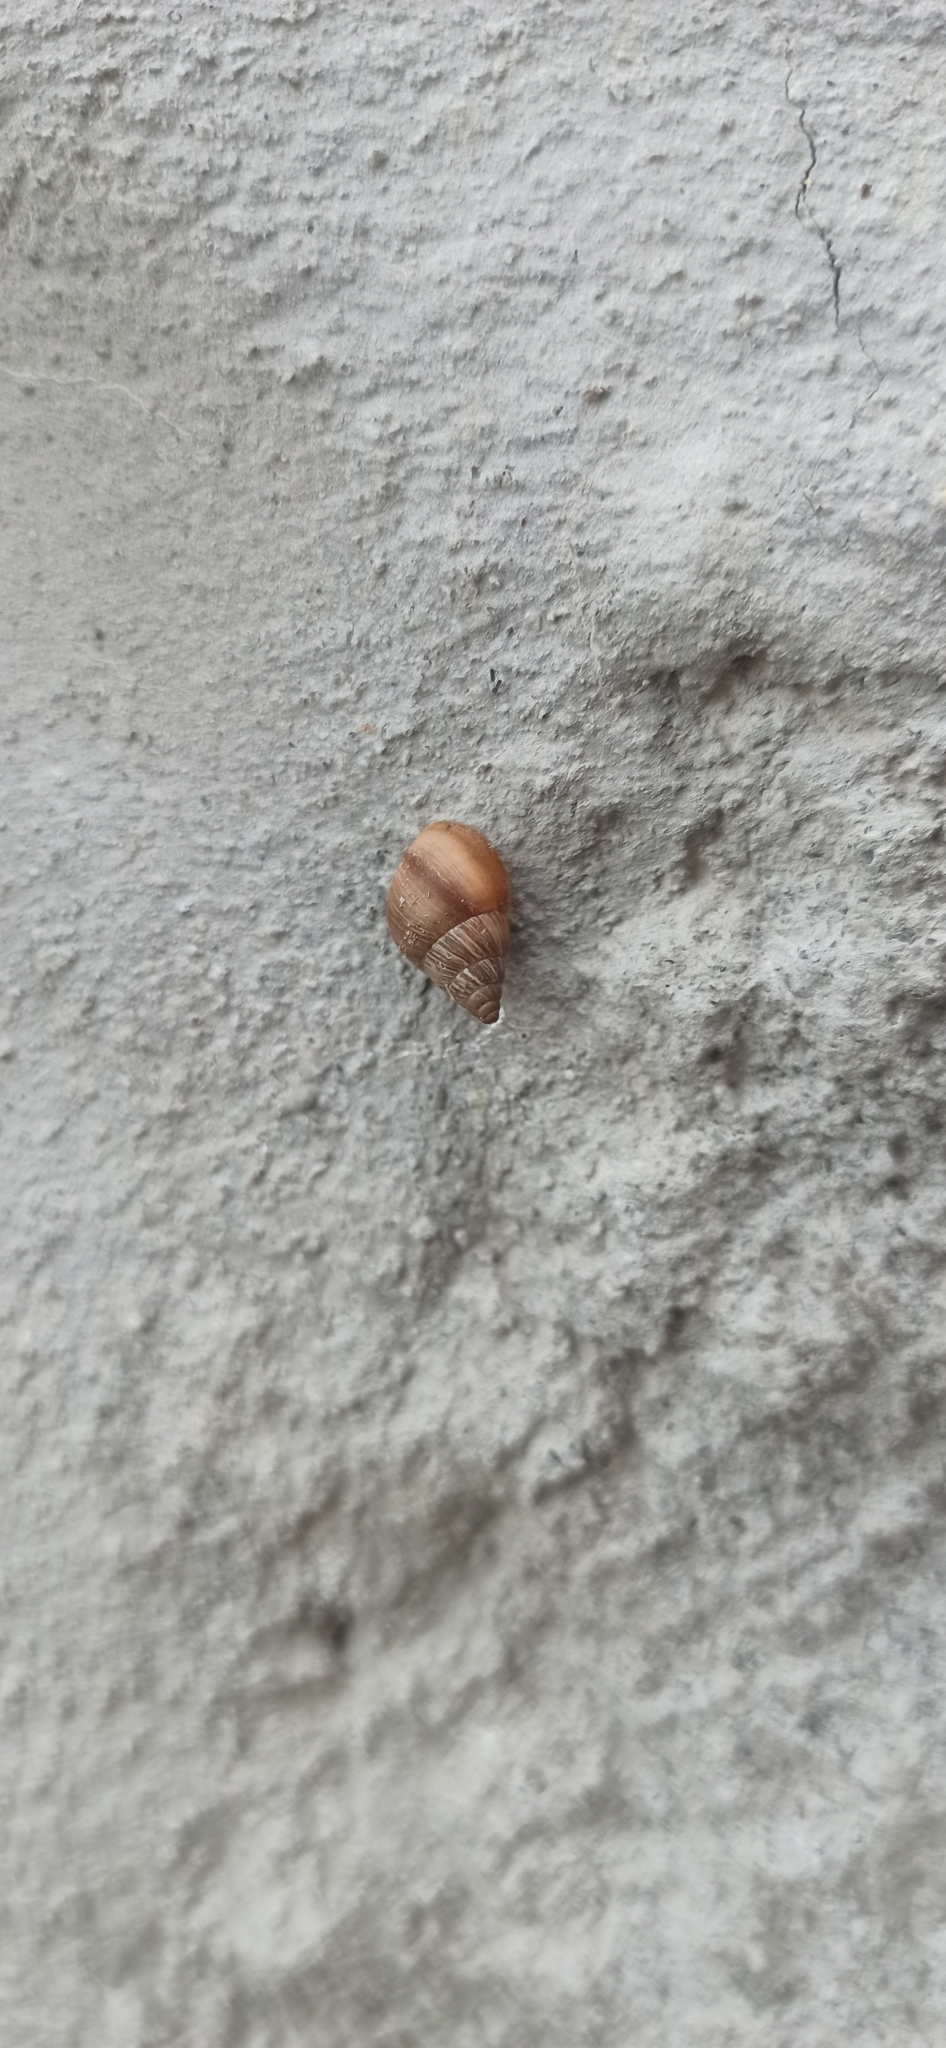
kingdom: Animalia
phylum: Mollusca
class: Gastropoda
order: Stylommatophora
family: Bulimulidae
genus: Naesiotus
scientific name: Naesiotus quitensis
